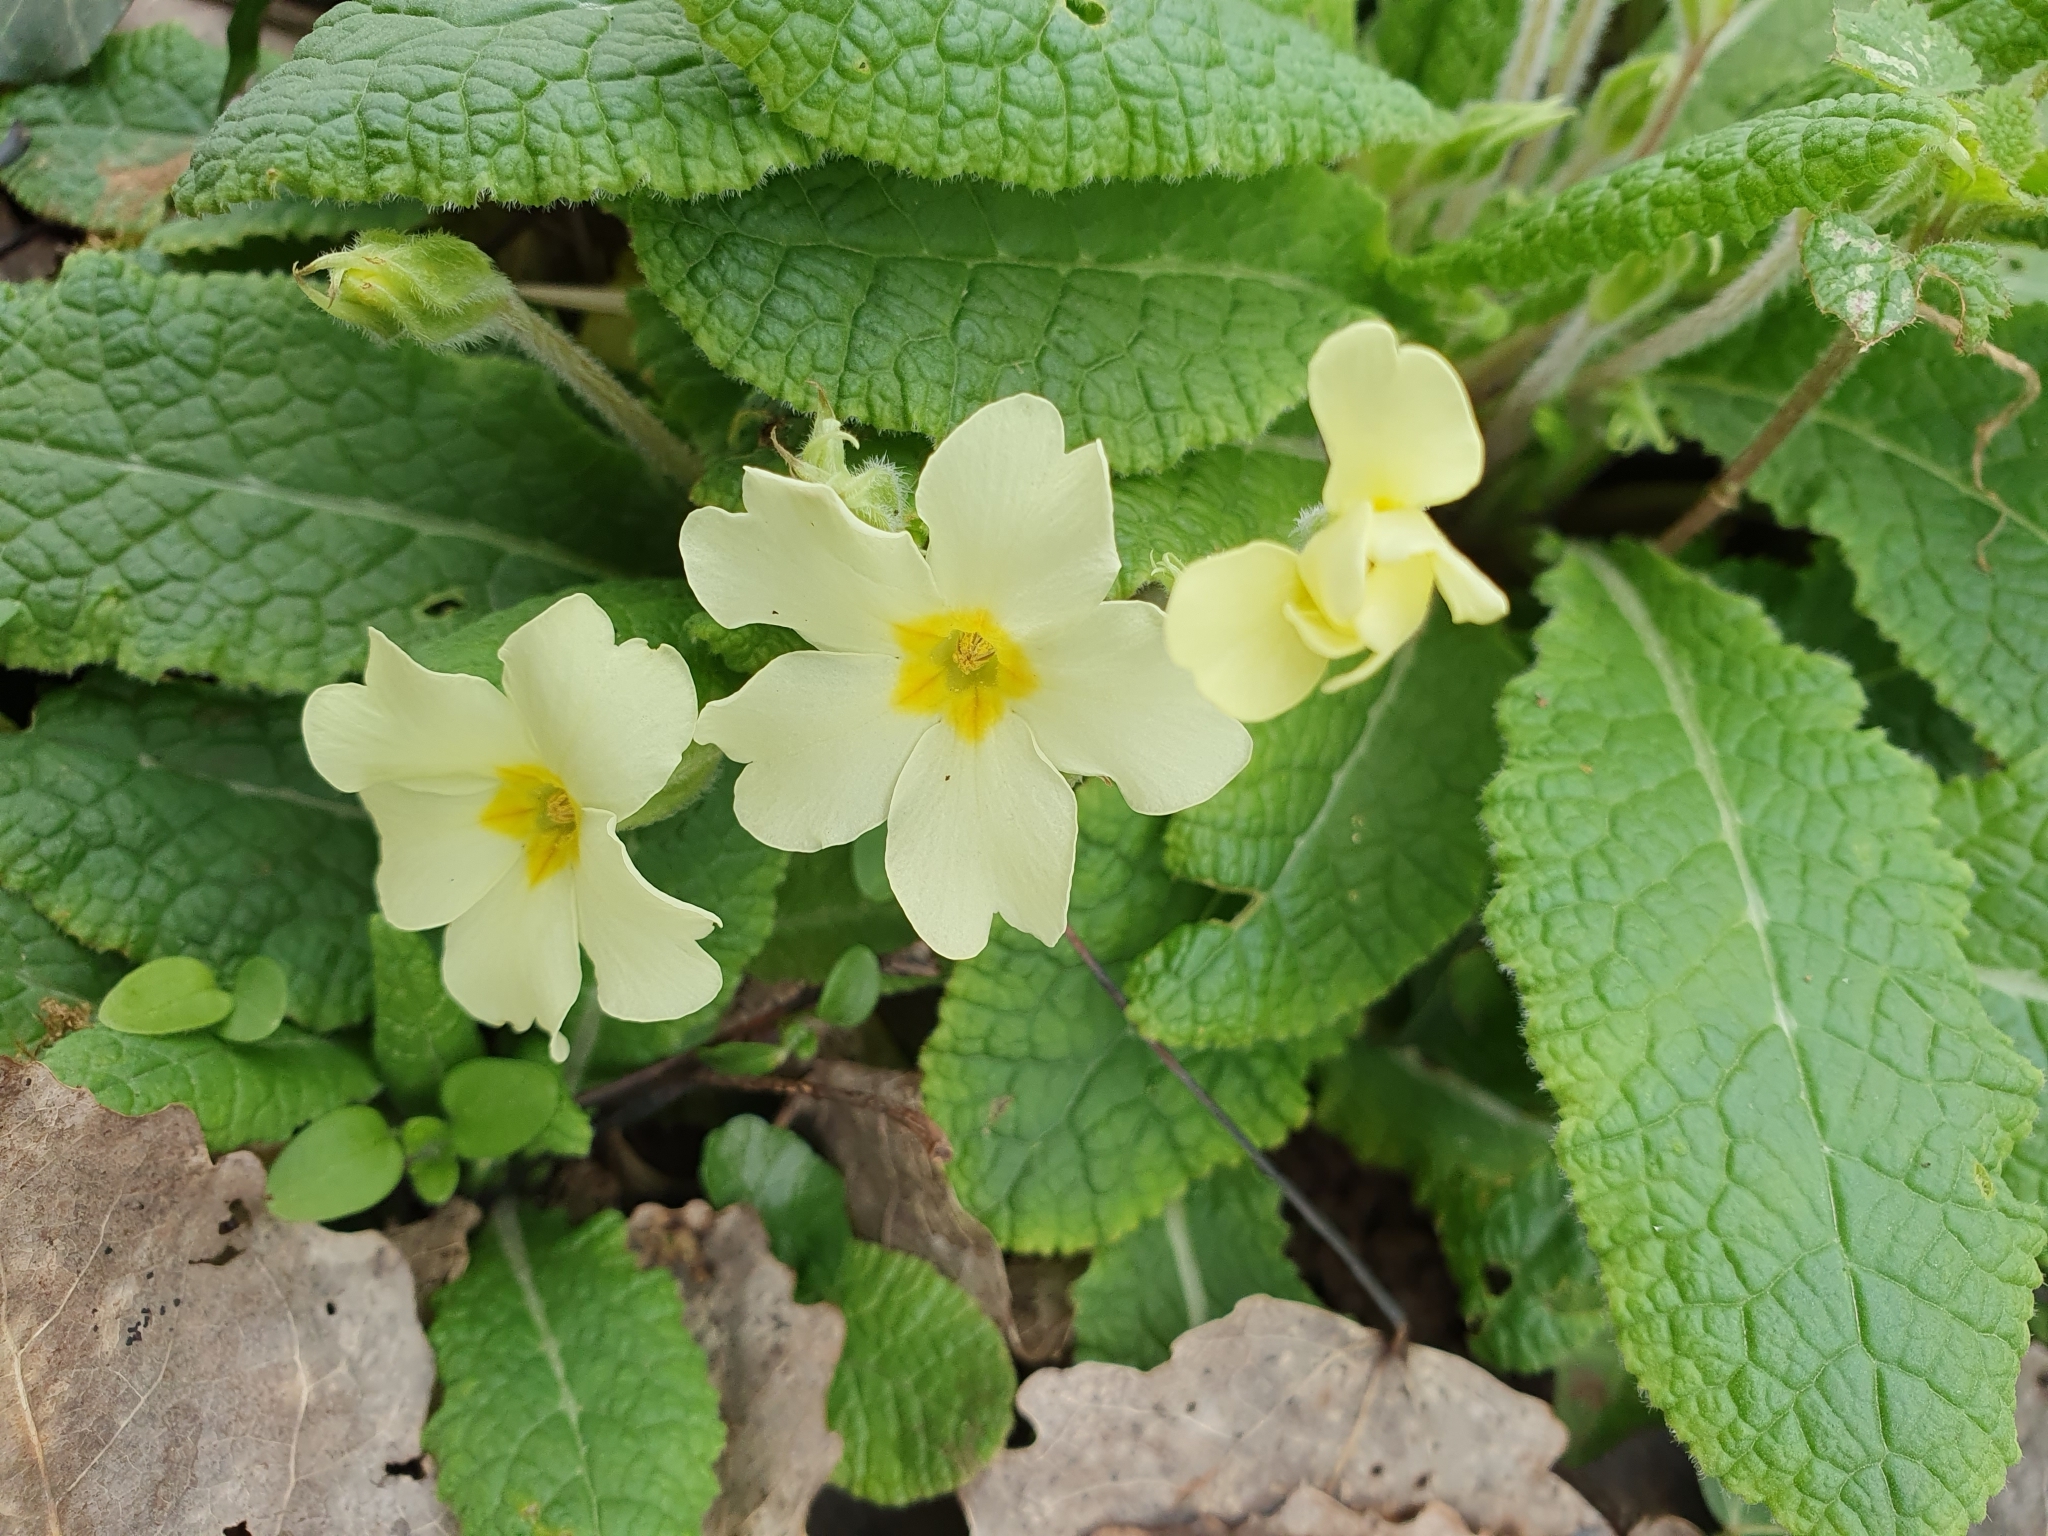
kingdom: Plantae
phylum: Tracheophyta
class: Magnoliopsida
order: Ericales
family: Primulaceae
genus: Primula
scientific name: Primula vulgaris
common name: Primrose
